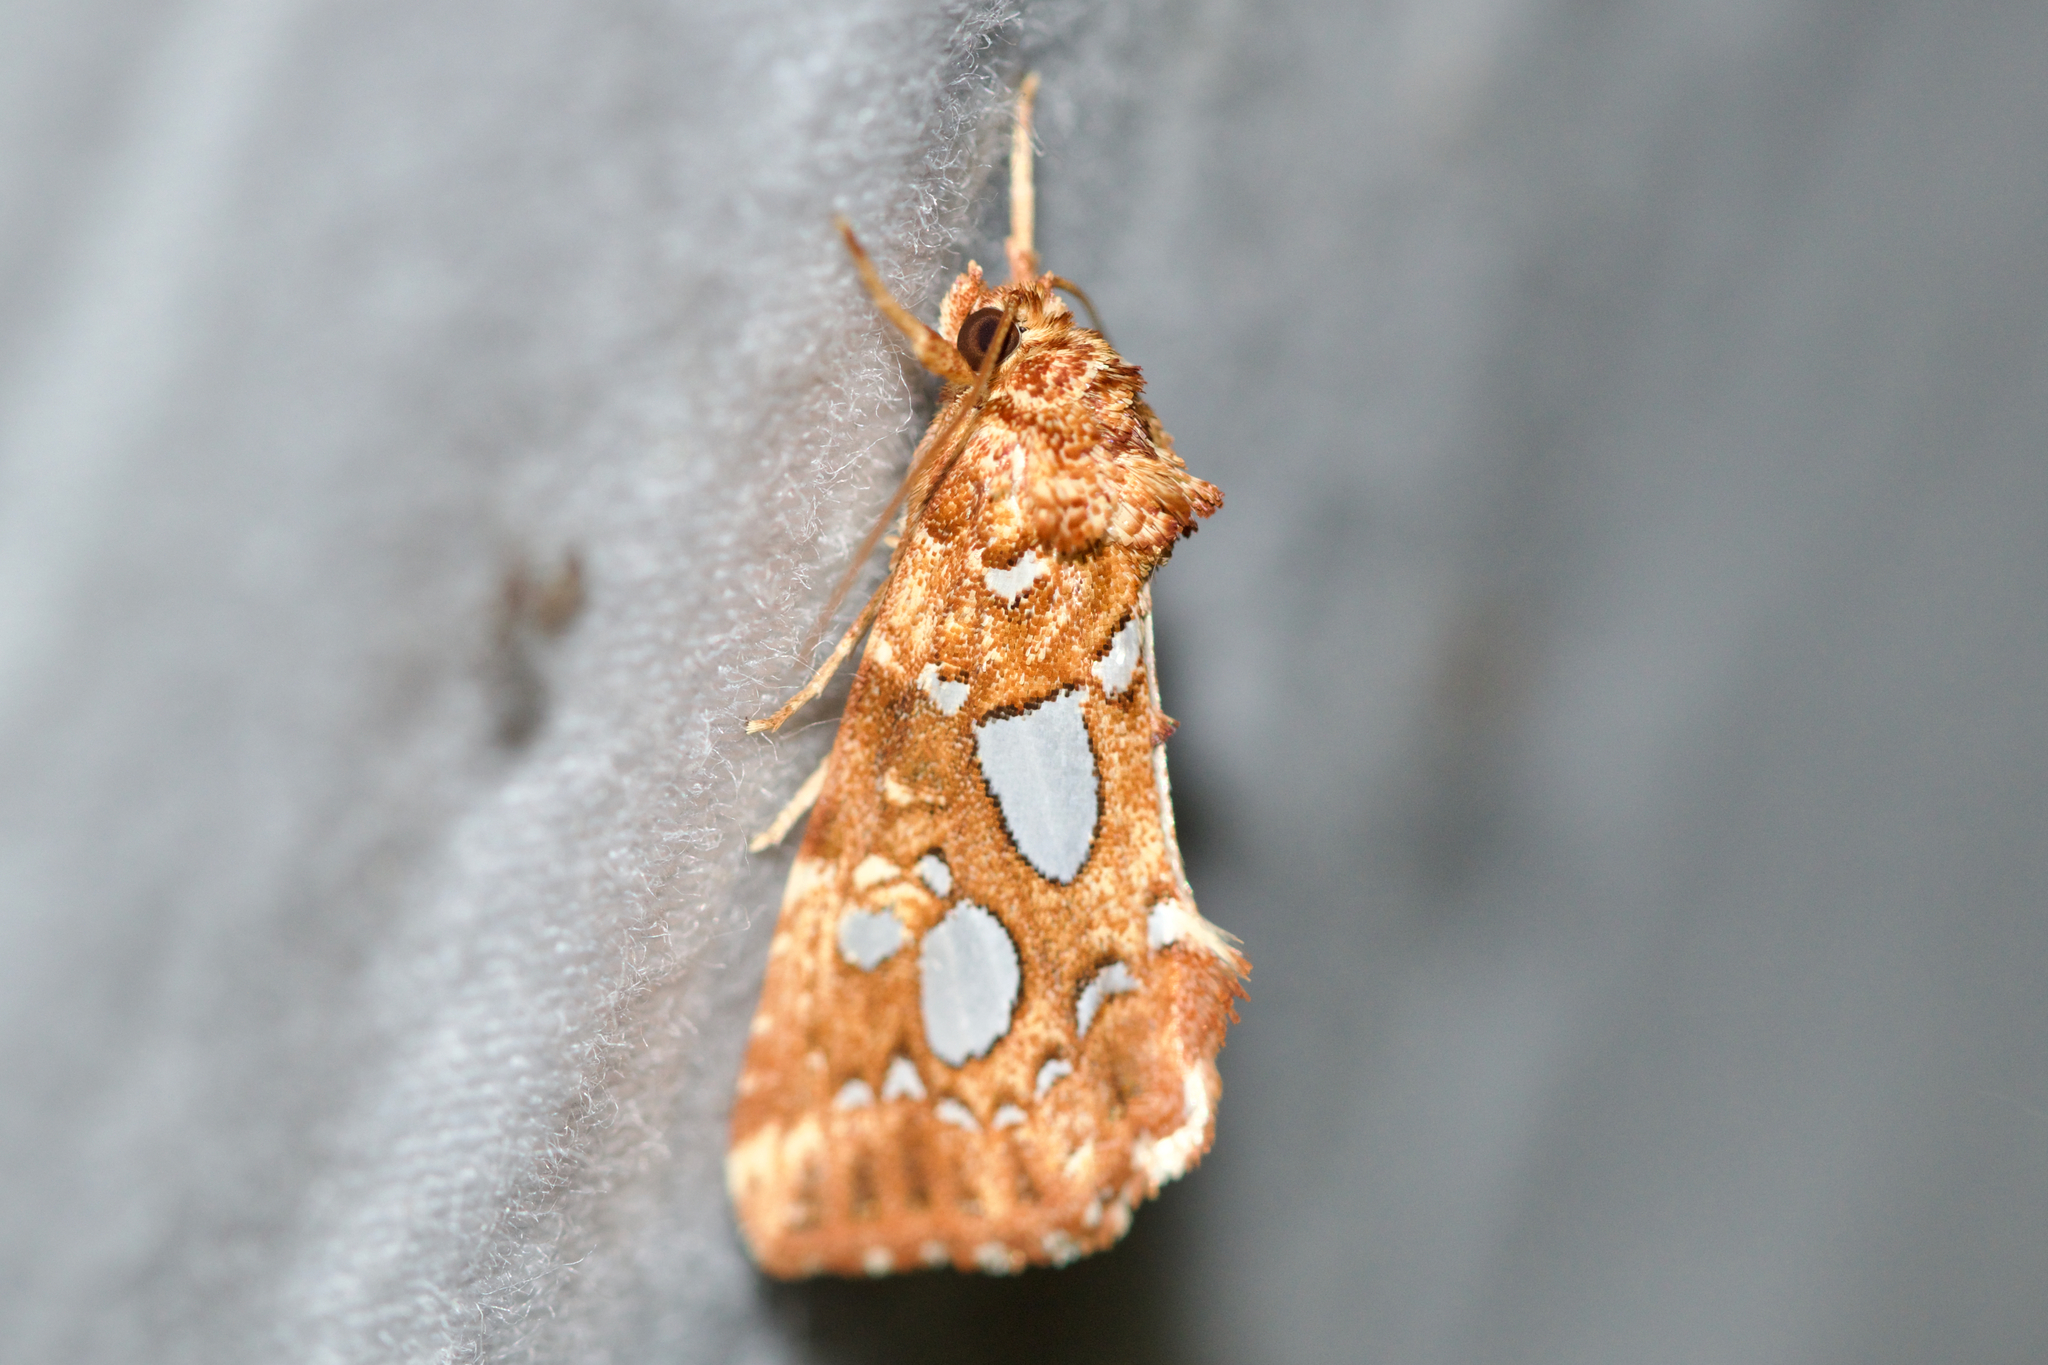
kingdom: Animalia
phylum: Arthropoda
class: Insecta
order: Lepidoptera
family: Noctuidae
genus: Callopistria
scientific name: Callopistria cordata
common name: Silver-spotted fern moth
